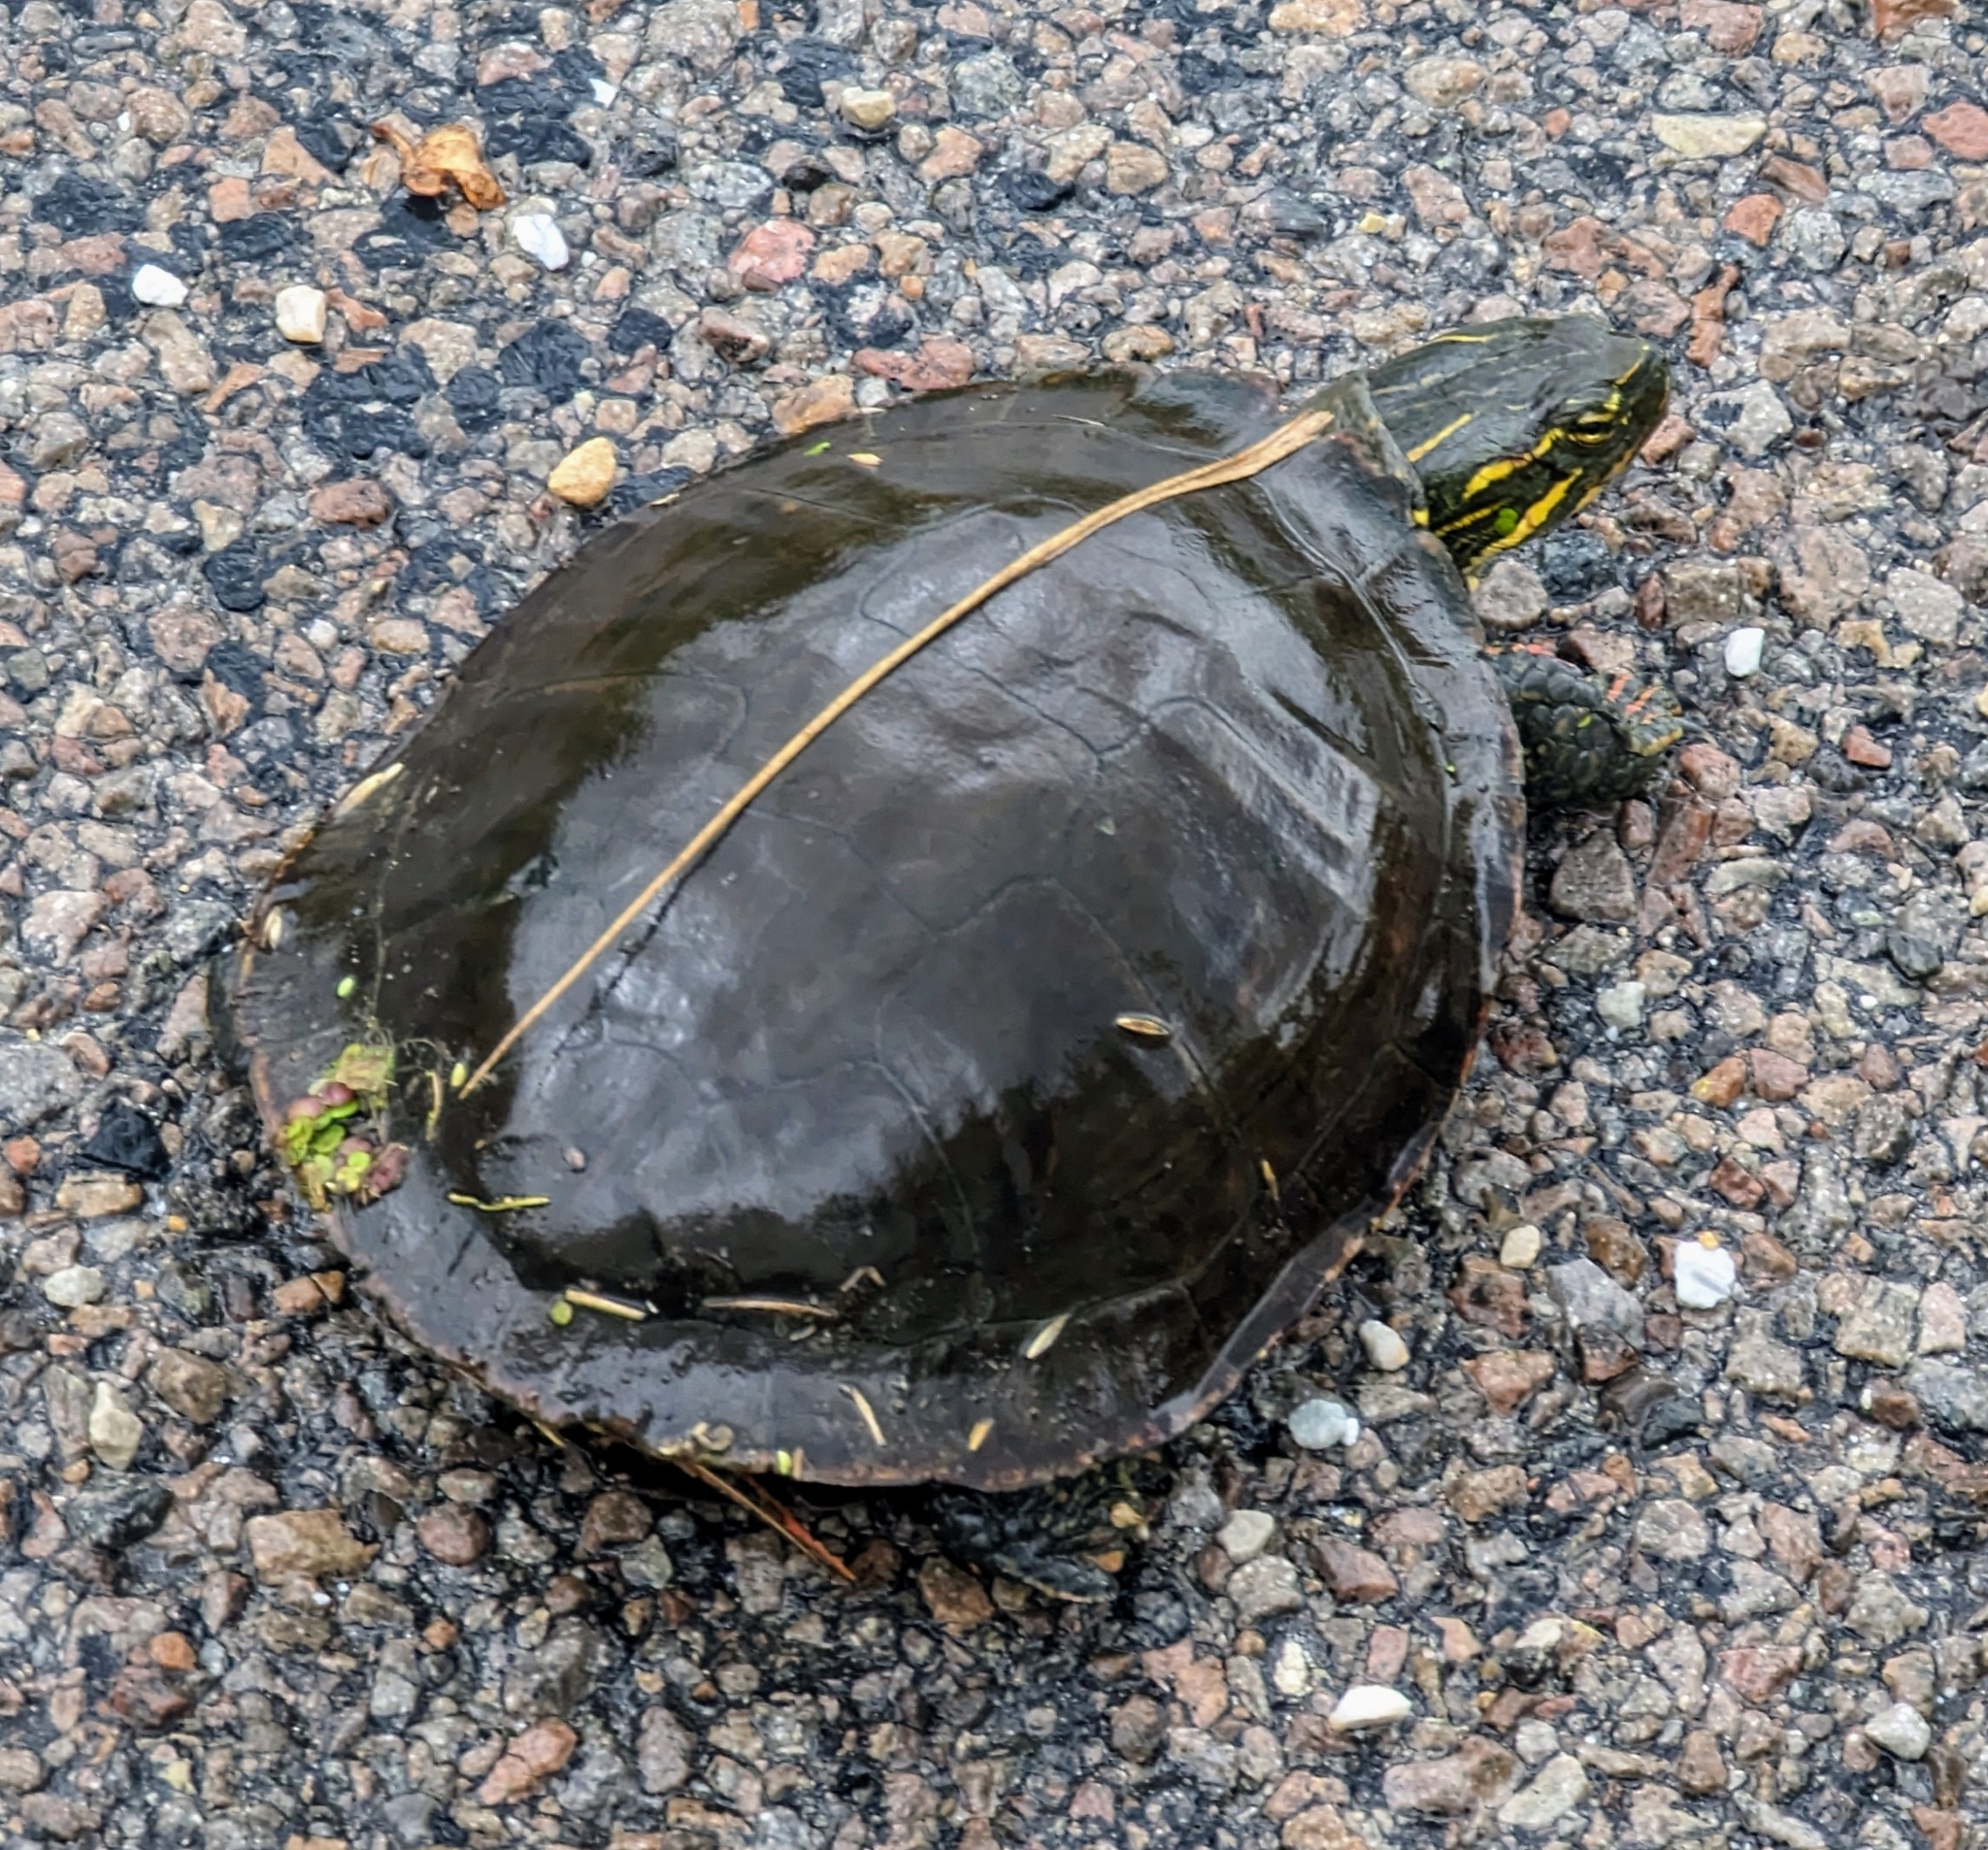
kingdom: Animalia
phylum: Chordata
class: Testudines
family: Emydidae
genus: Chrysemys
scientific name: Chrysemys picta
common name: Painted turtle
